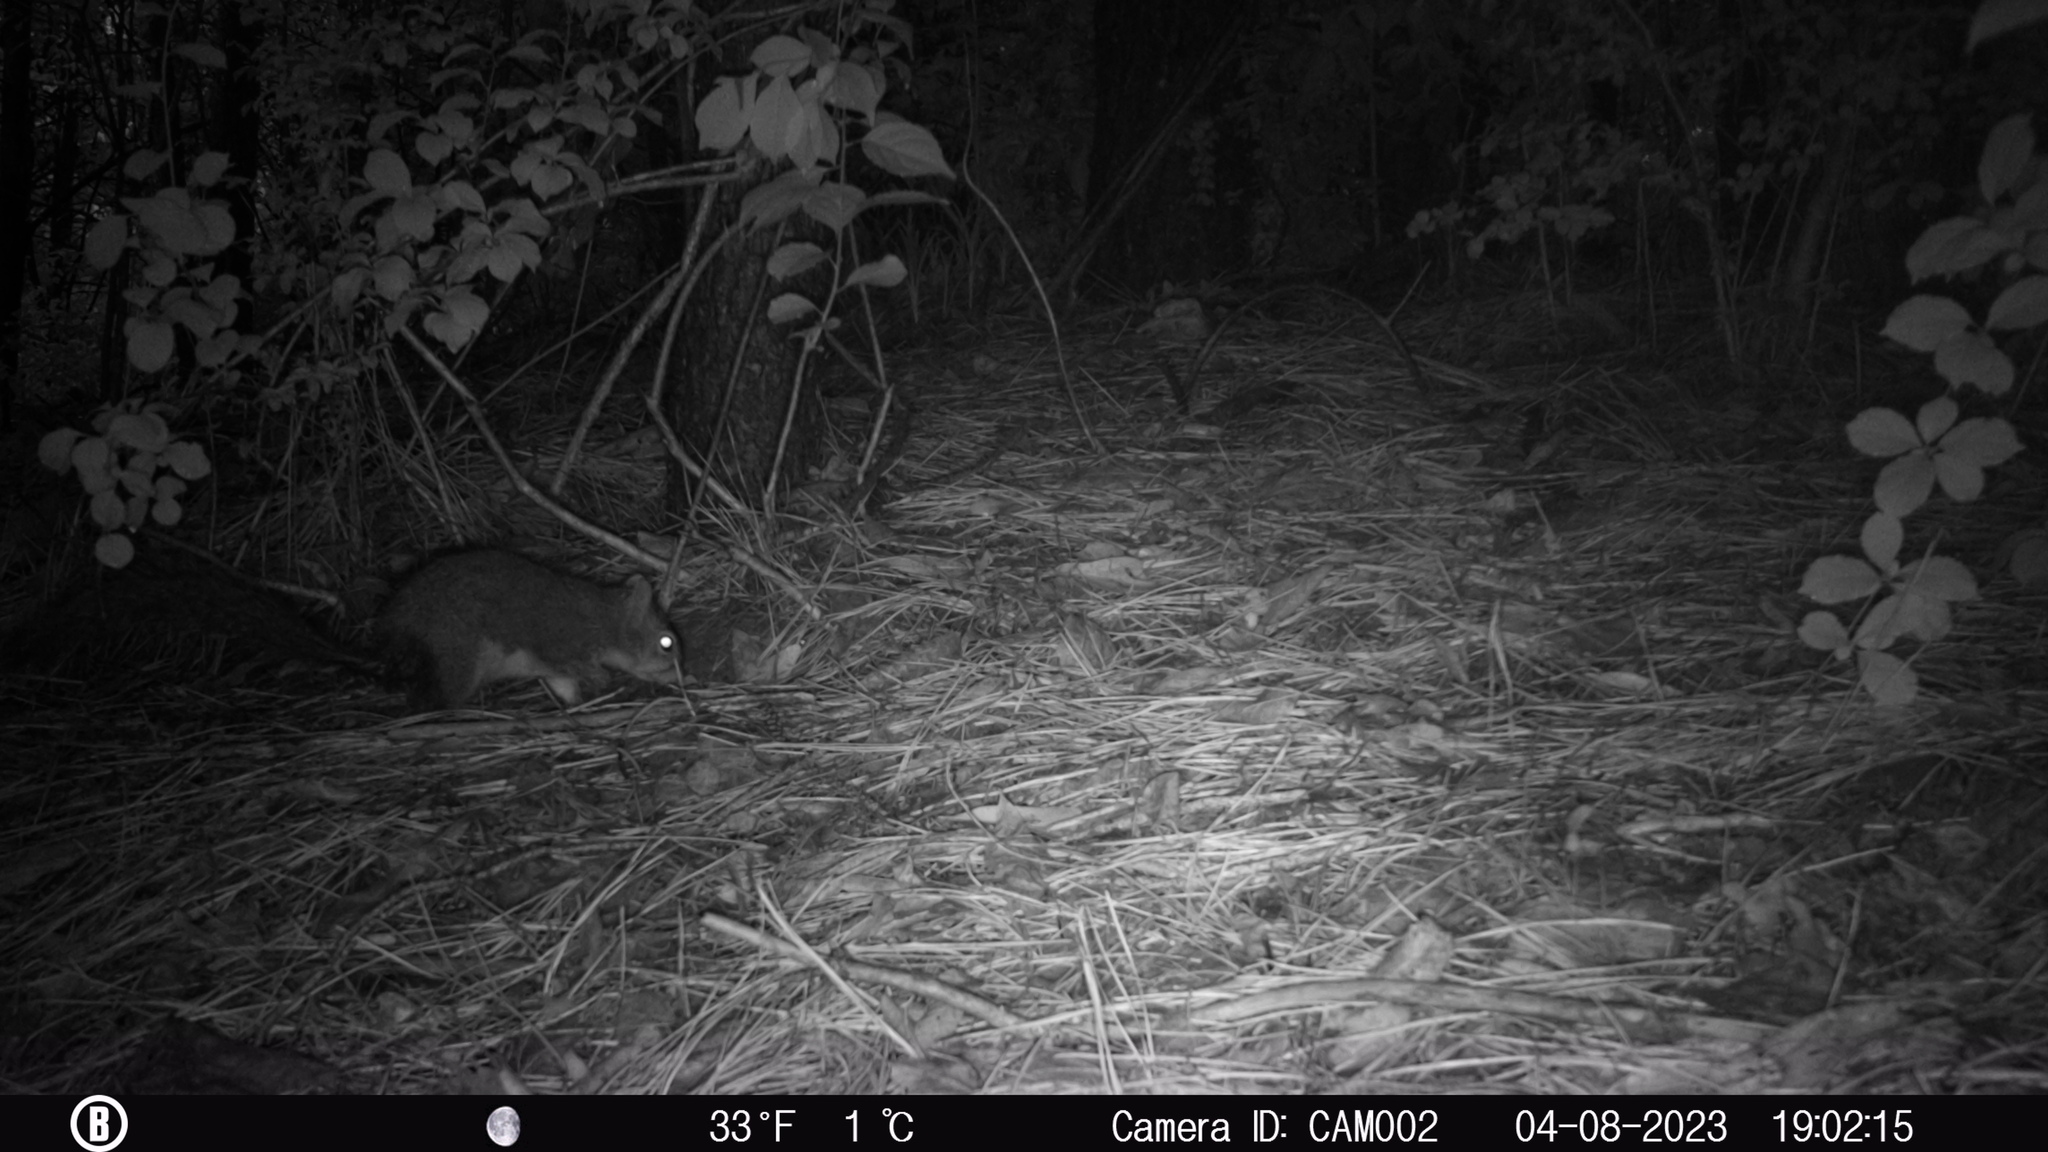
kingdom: Animalia
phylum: Chordata
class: Mammalia
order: Rodentia
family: Sciuridae
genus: Sciurus
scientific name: Sciurus carolinensis
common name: Eastern gray squirrel
